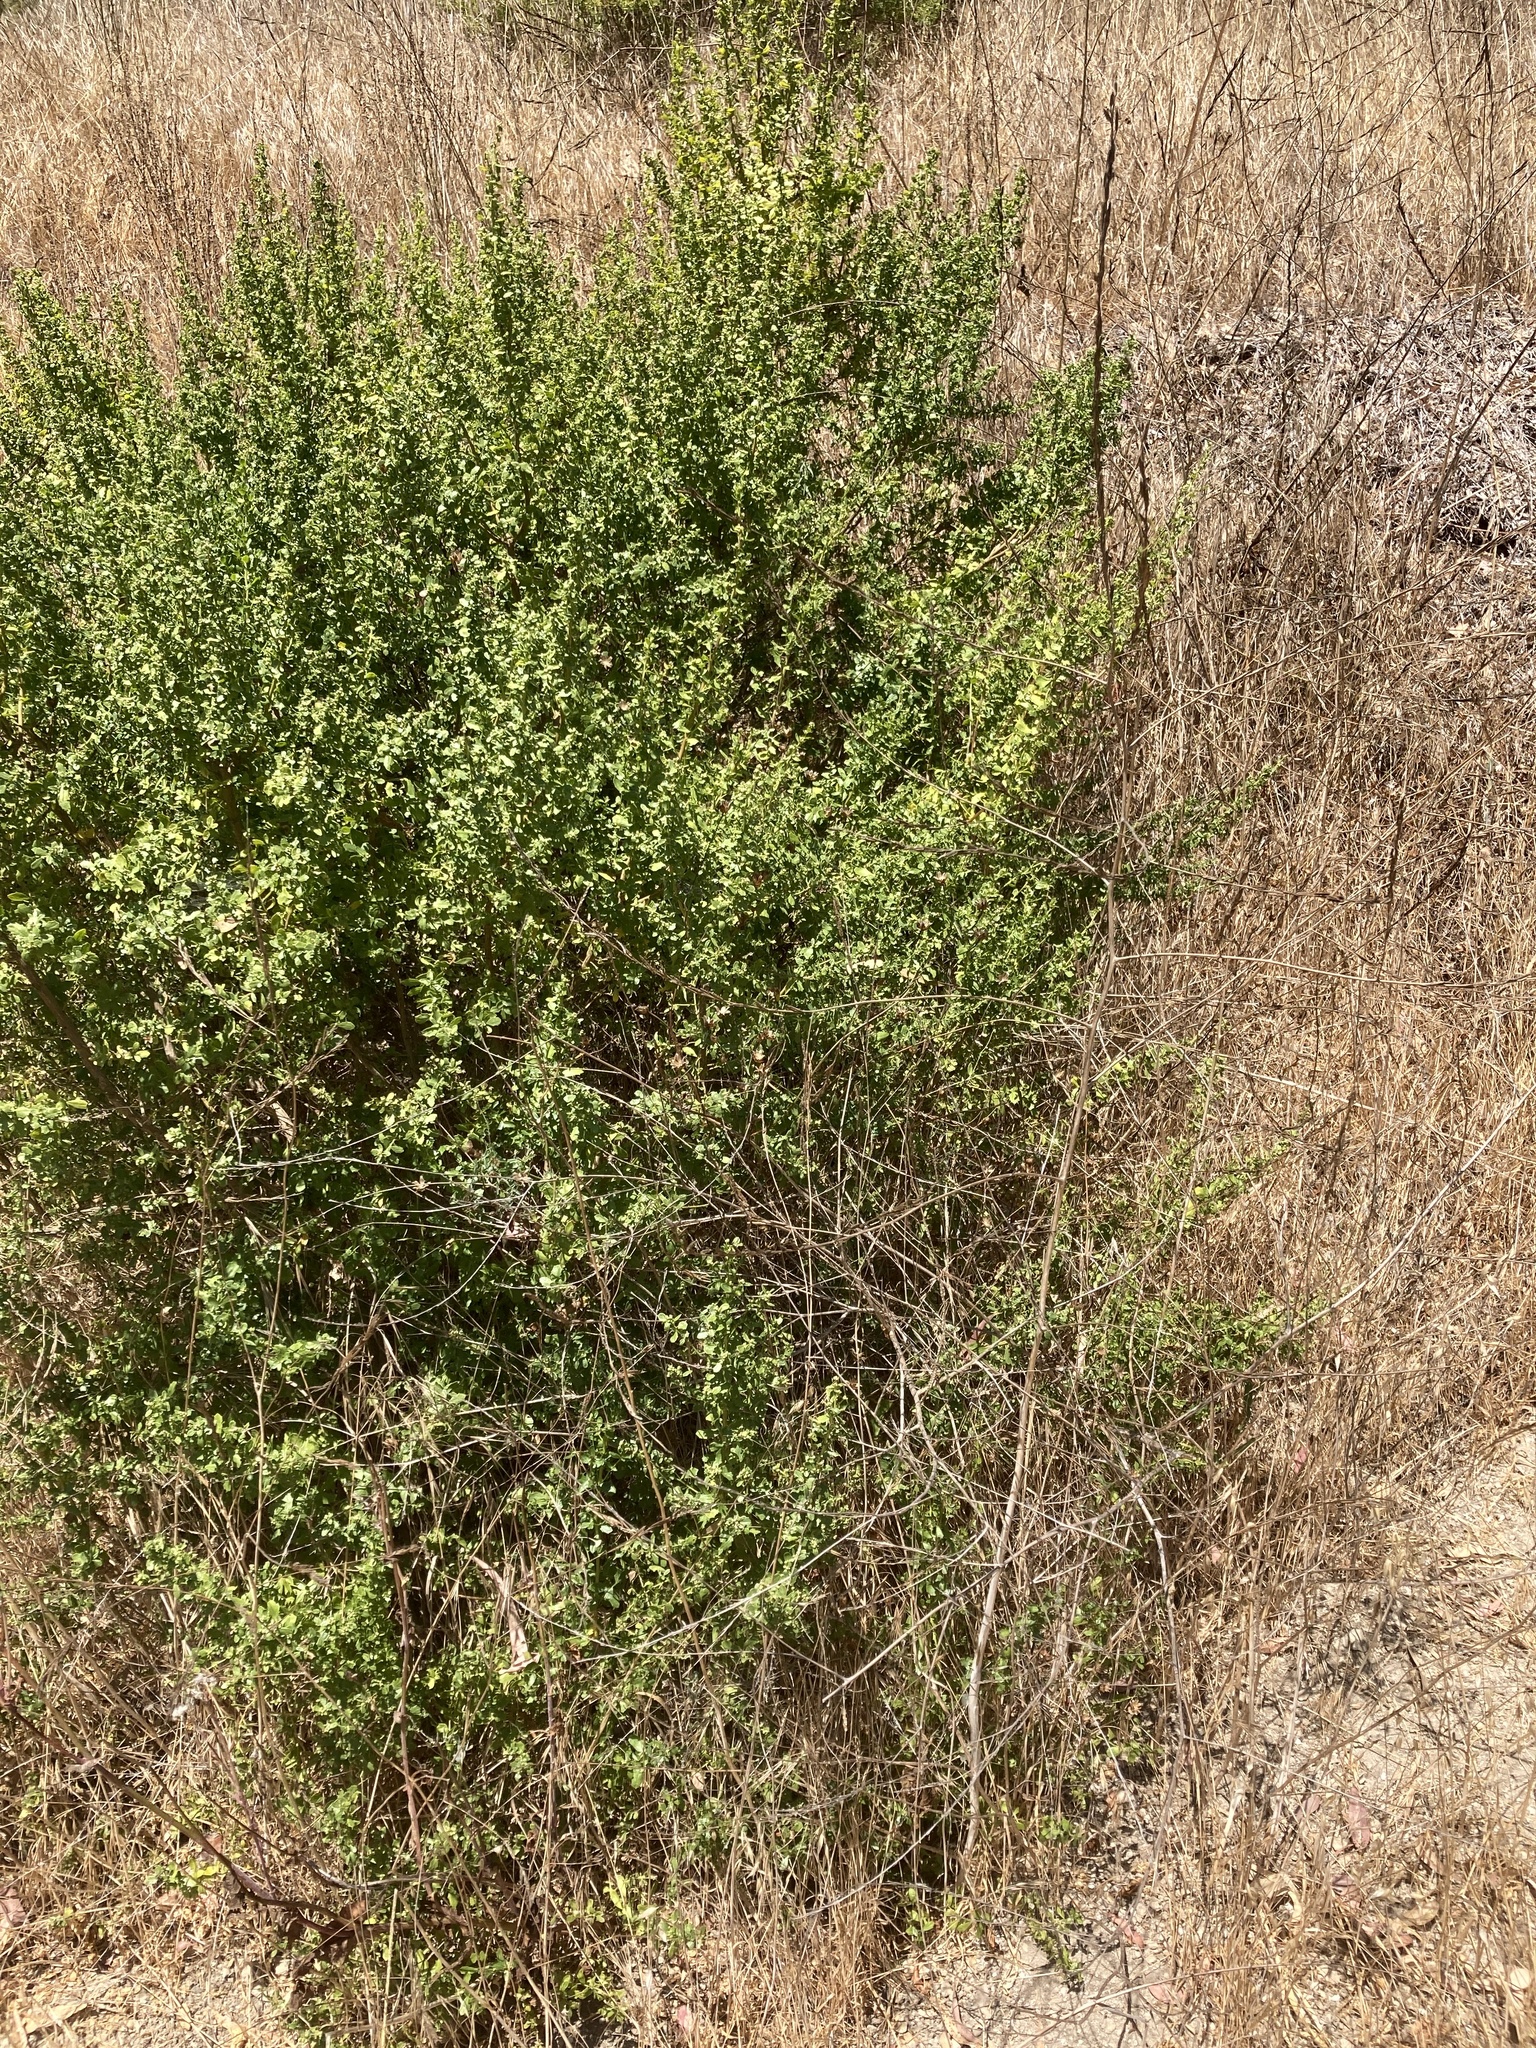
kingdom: Plantae
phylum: Tracheophyta
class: Magnoliopsida
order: Asterales
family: Asteraceae
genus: Baccharis
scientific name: Baccharis pilularis
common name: Coyotebrush
